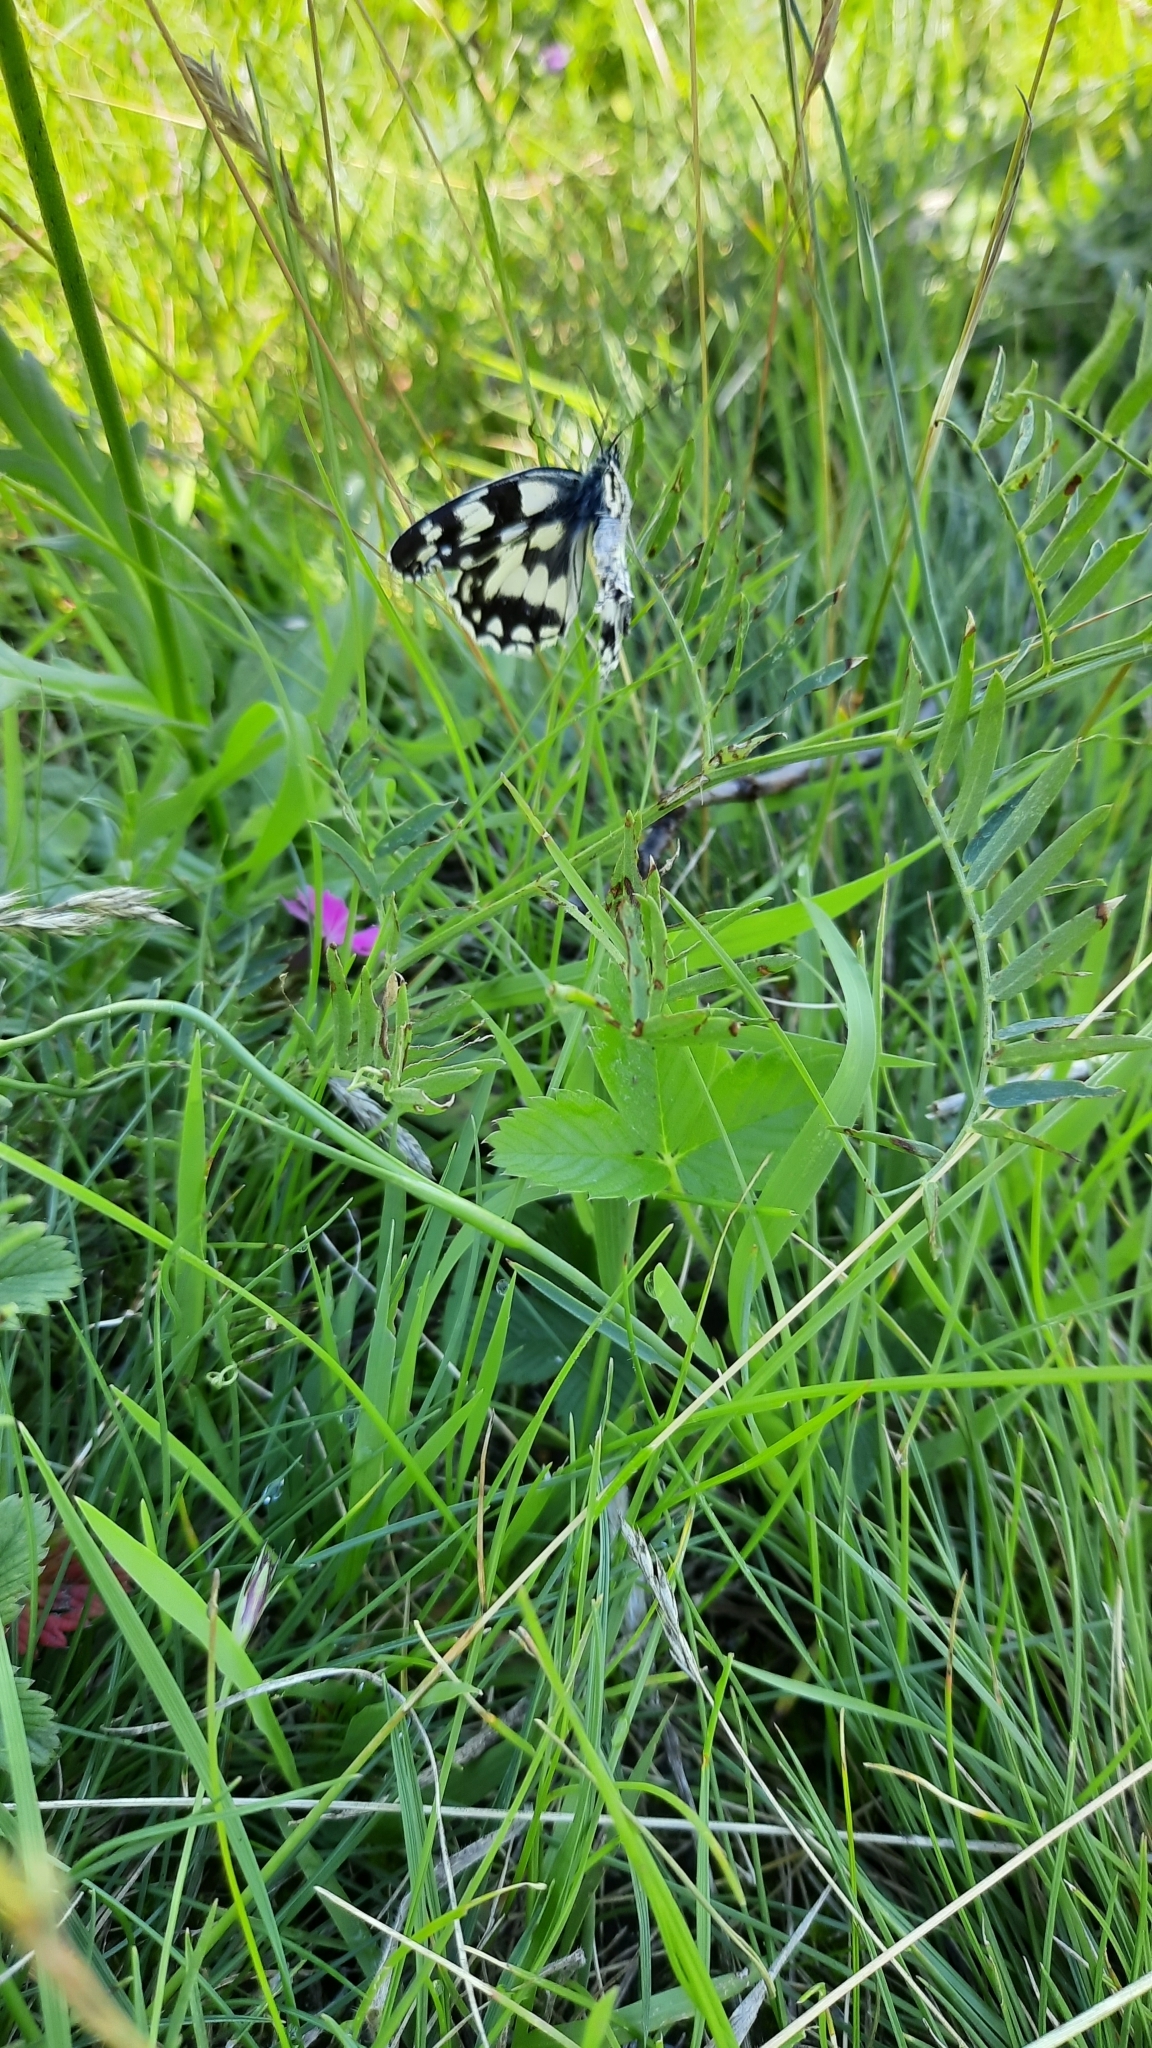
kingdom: Animalia
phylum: Arthropoda
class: Insecta
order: Lepidoptera
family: Nymphalidae
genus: Melanargia
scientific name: Melanargia galathea
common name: Marbled white
